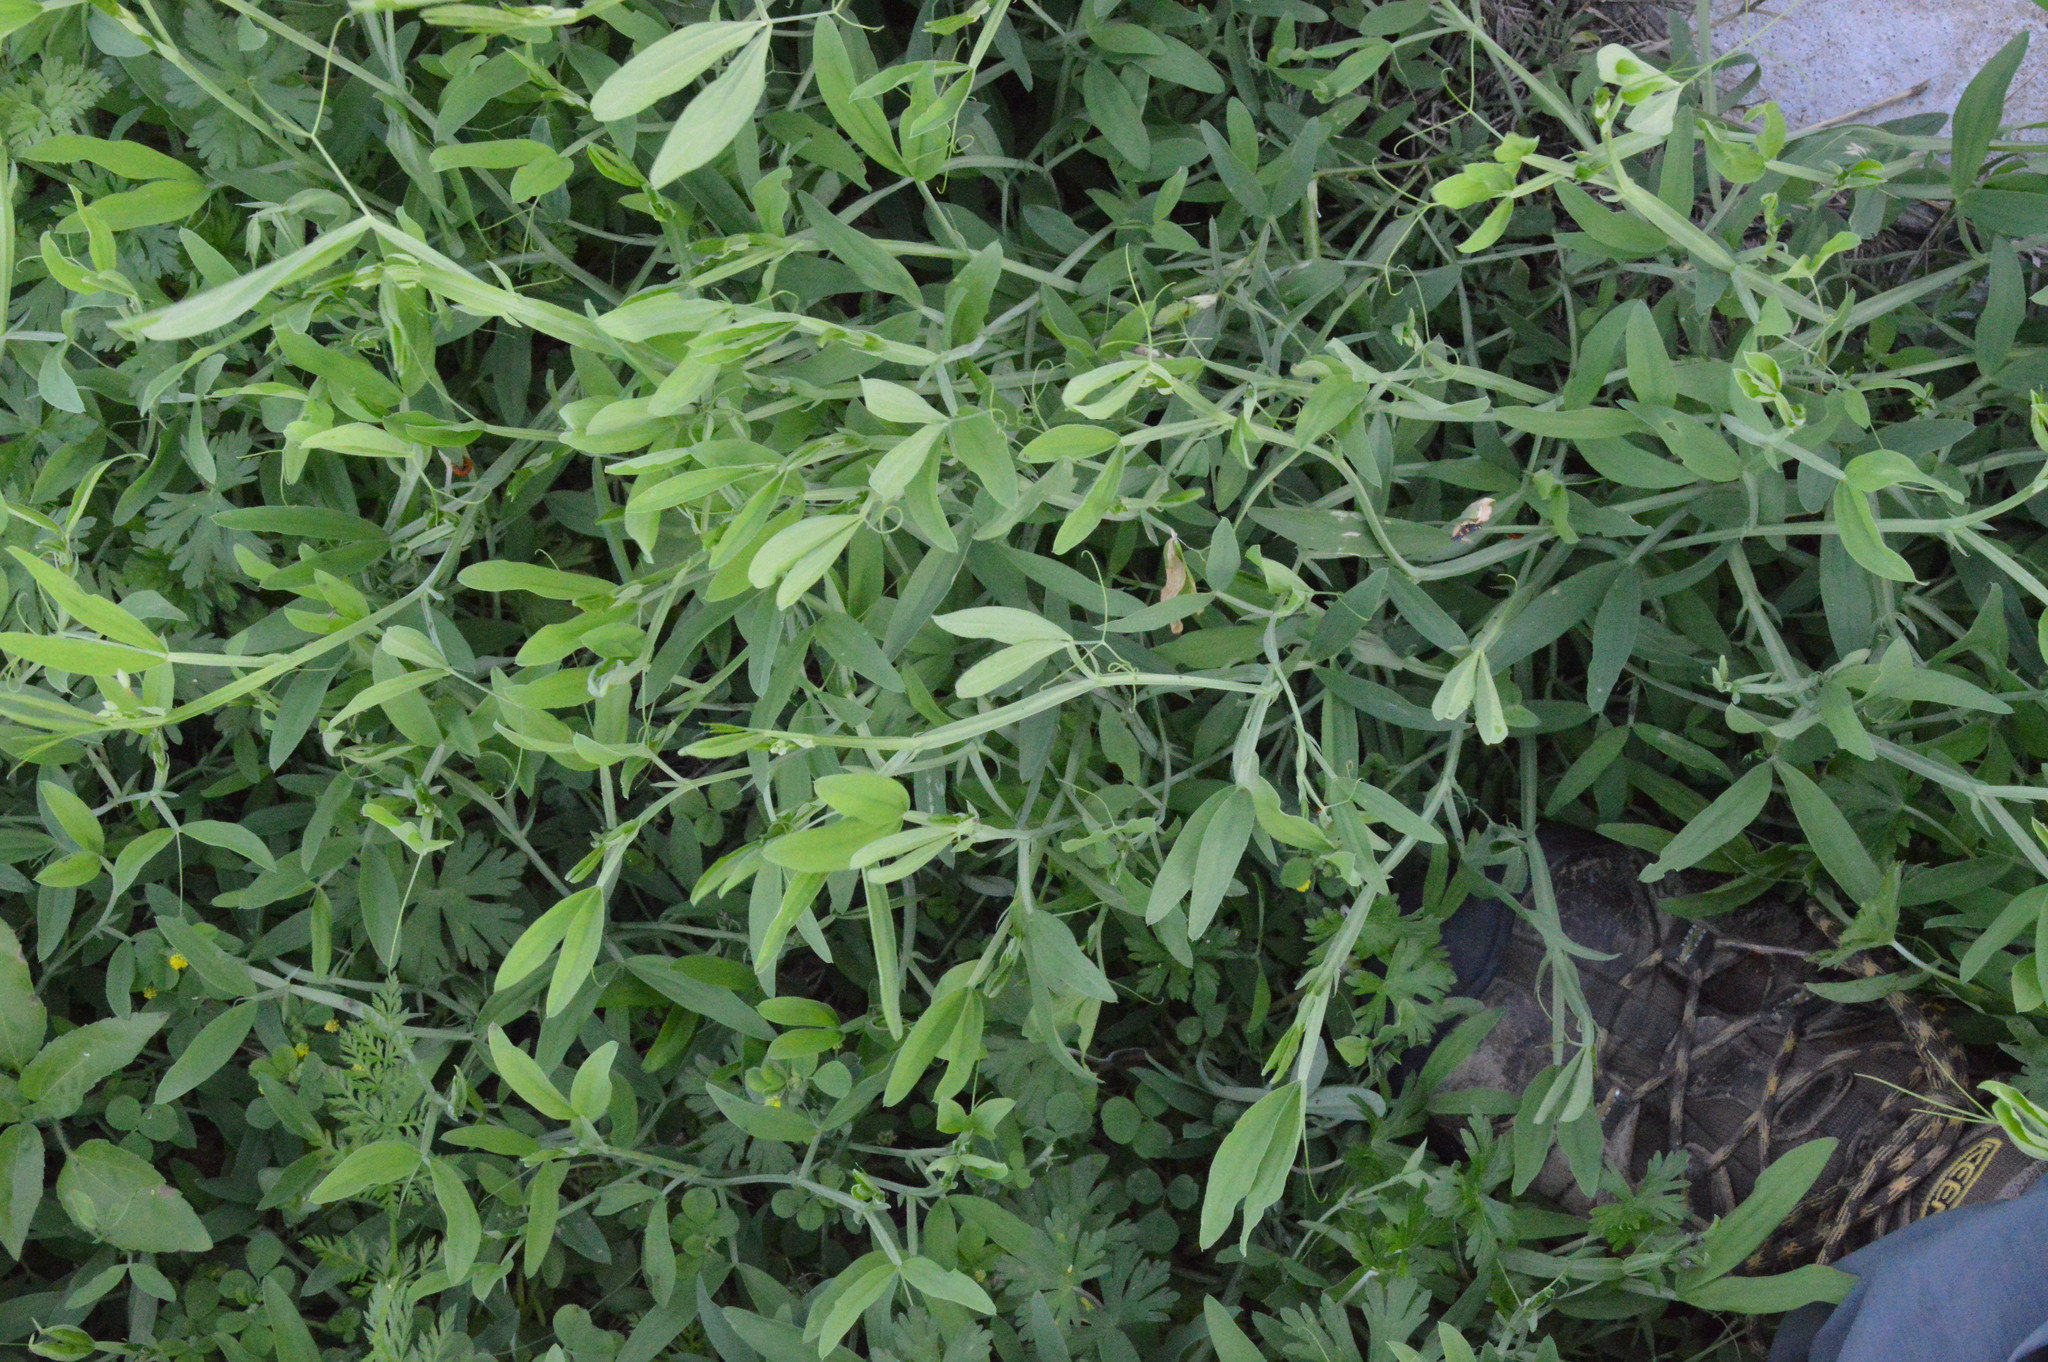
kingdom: Plantae
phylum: Tracheophyta
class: Magnoliopsida
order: Fabales
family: Fabaceae
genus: Lathyrus
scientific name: Lathyrus hirsutus
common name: Hairy vetchling
